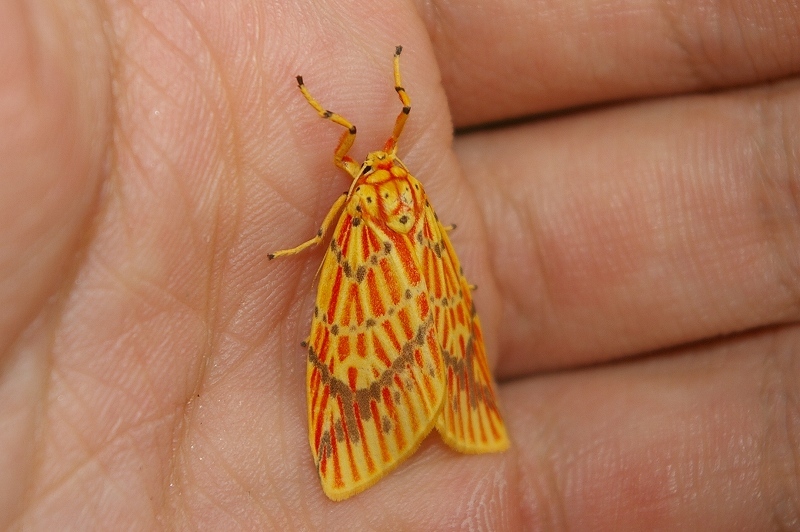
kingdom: Animalia
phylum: Arthropoda
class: Insecta
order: Lepidoptera
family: Erebidae
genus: Barsine
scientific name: Barsine striata
